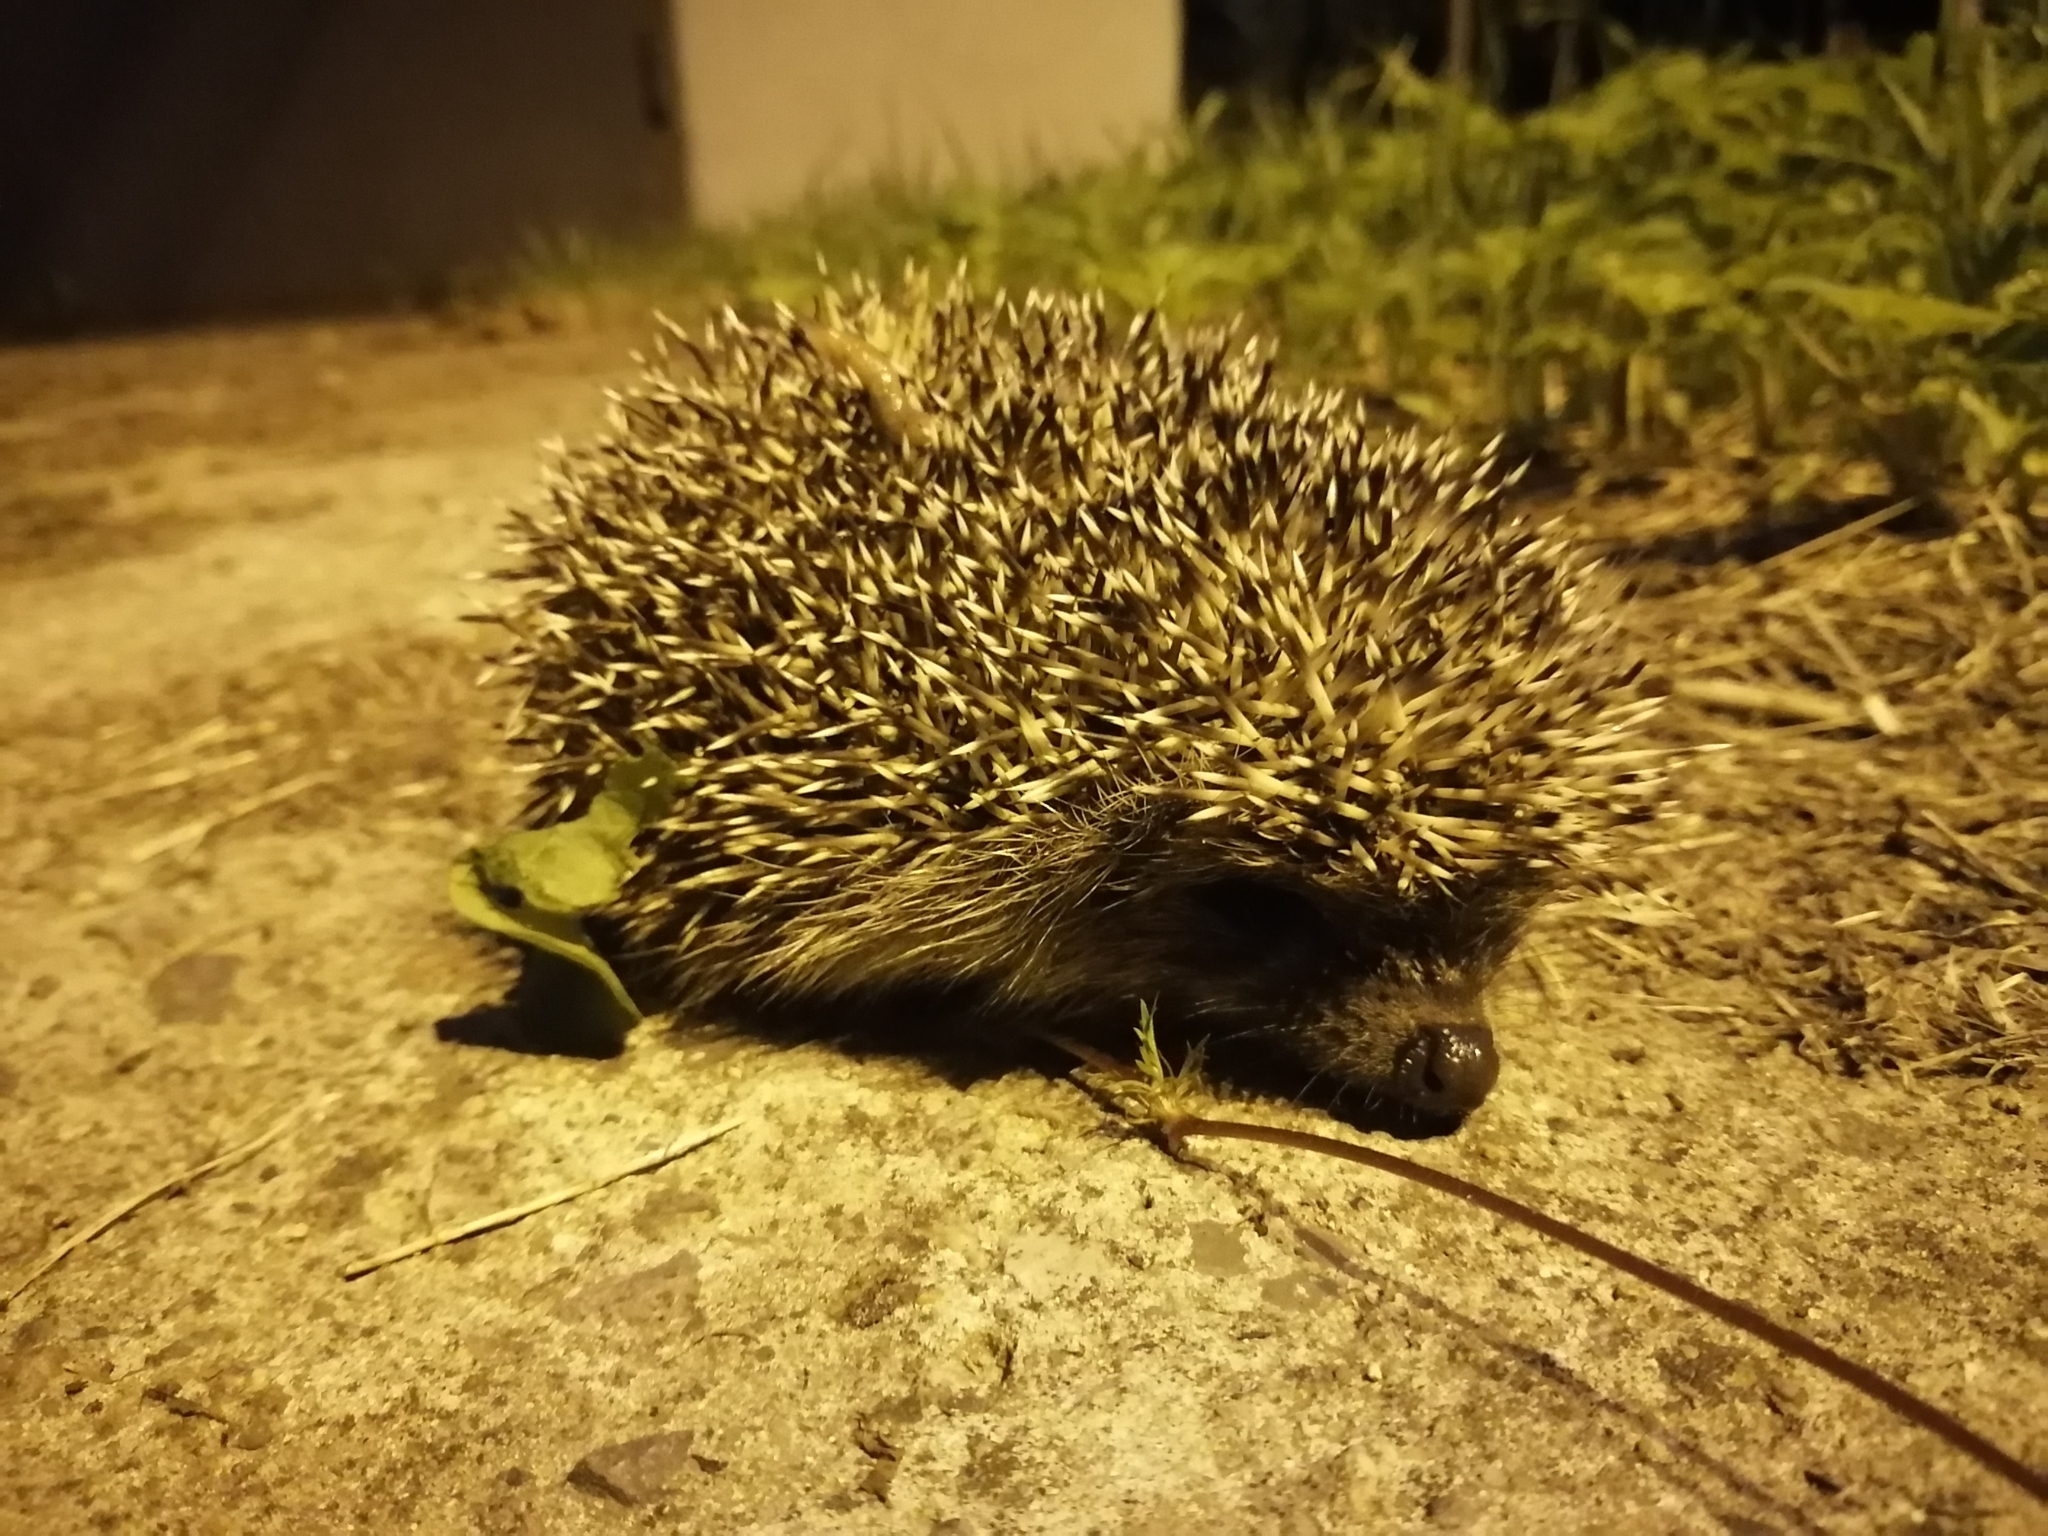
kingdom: Animalia
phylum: Chordata
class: Mammalia
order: Erinaceomorpha
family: Erinaceidae
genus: Erinaceus
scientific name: Erinaceus europaeus
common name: West european hedgehog
